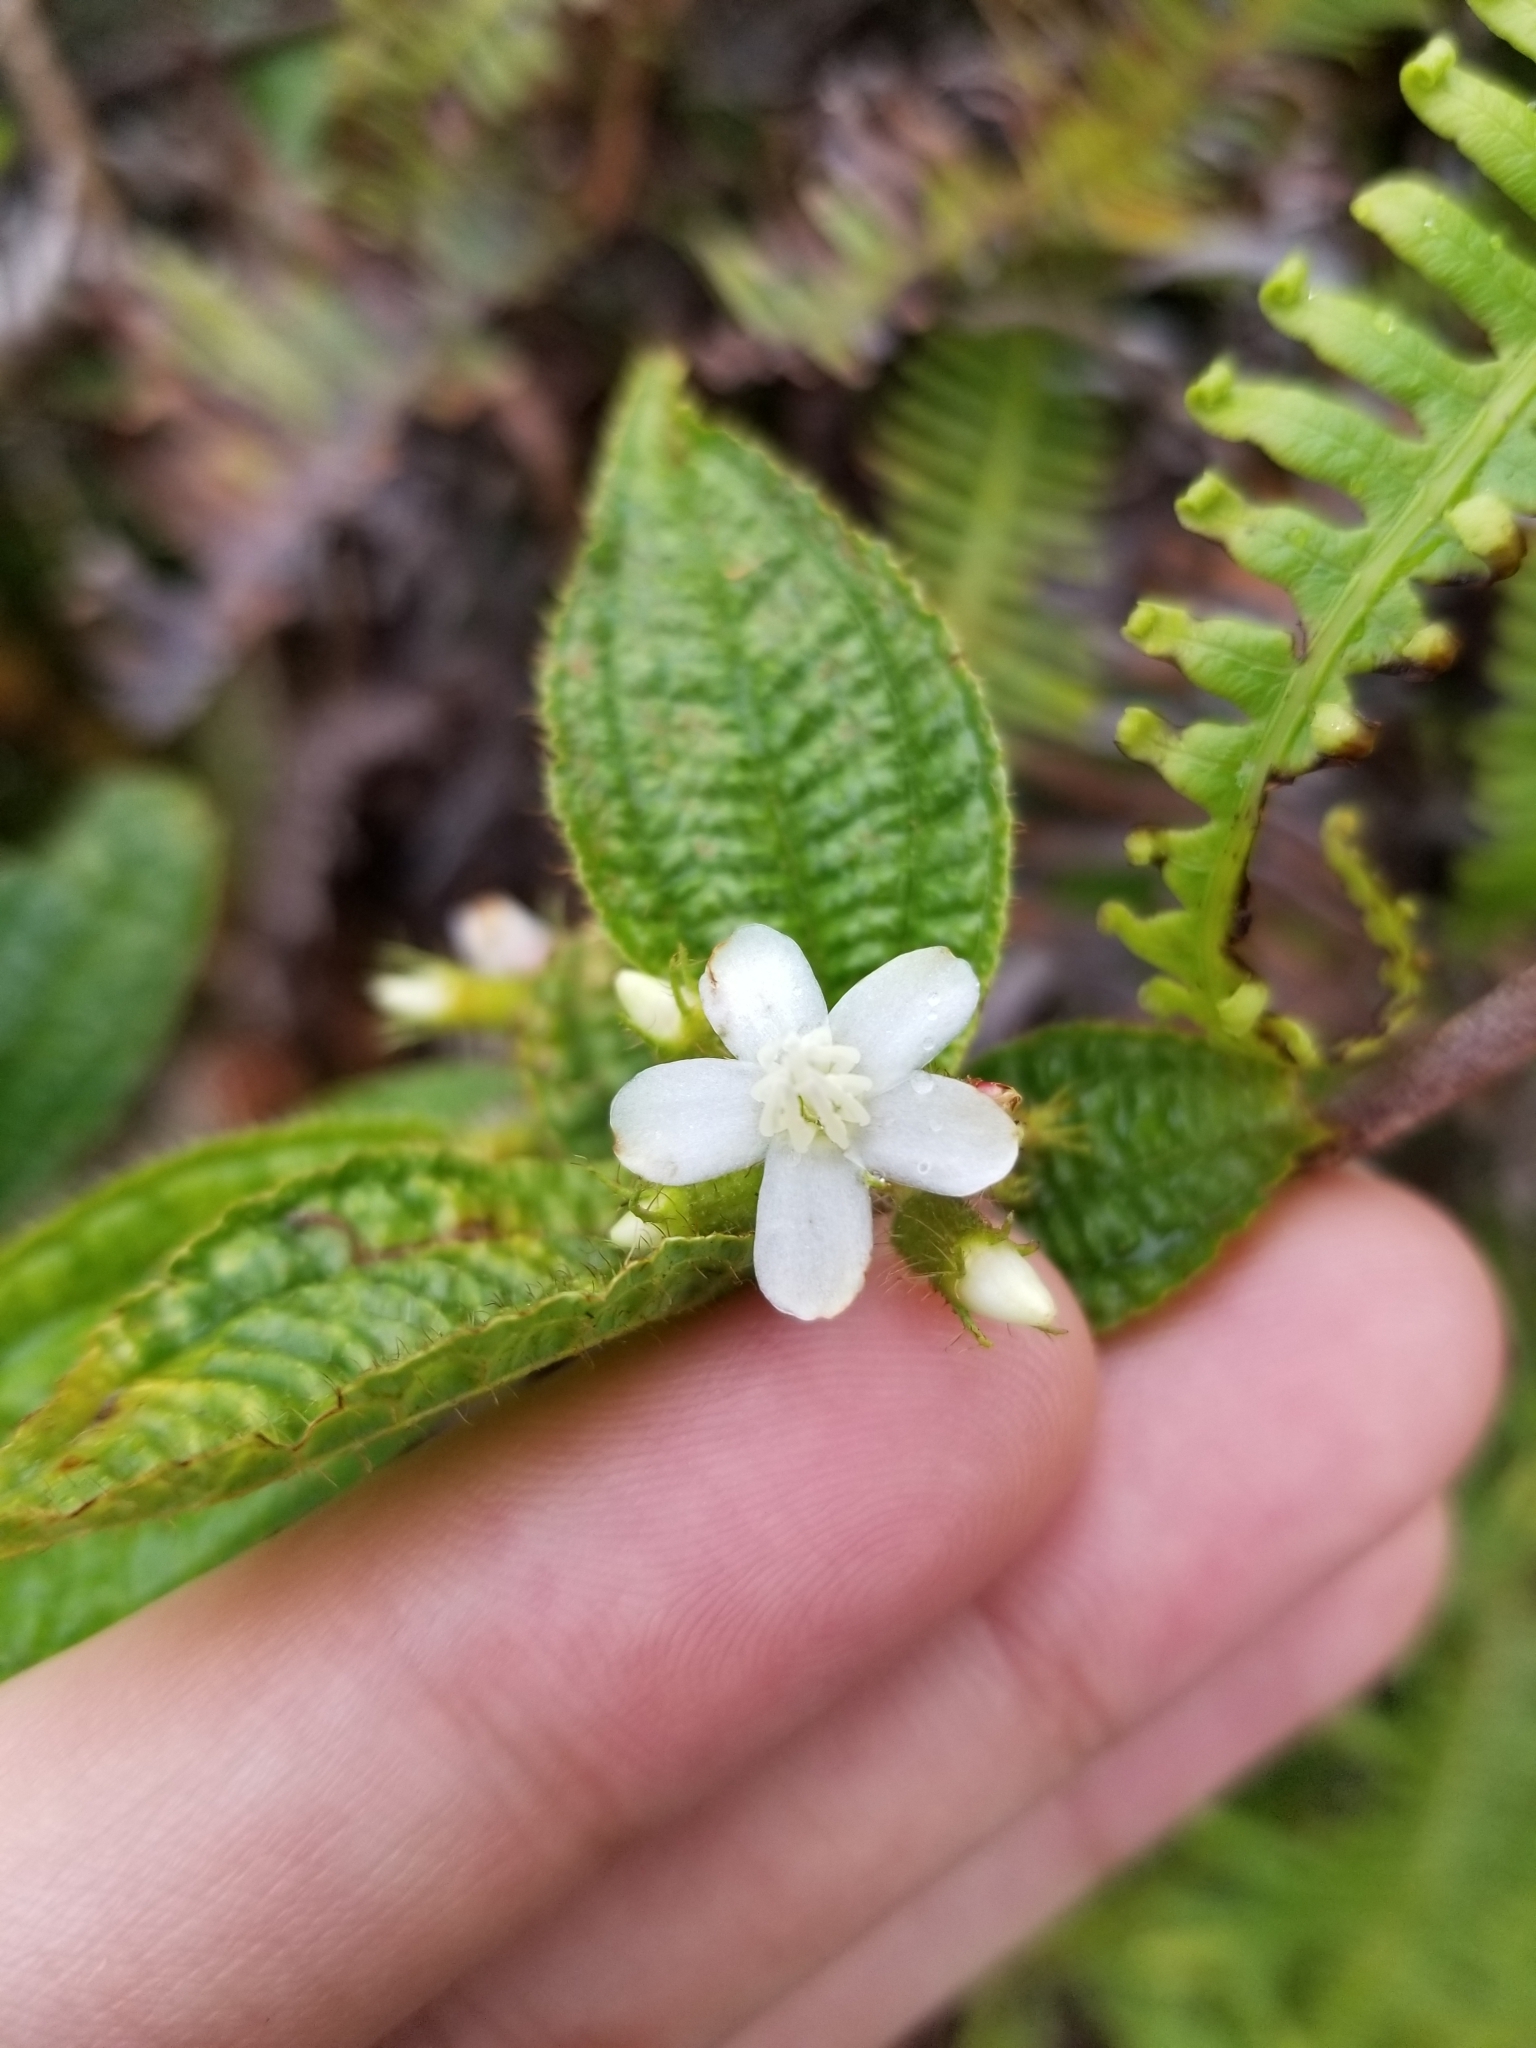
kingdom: Plantae
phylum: Tracheophyta
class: Magnoliopsida
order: Myrtales
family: Melastomataceae
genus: Miconia
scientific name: Miconia crenata
